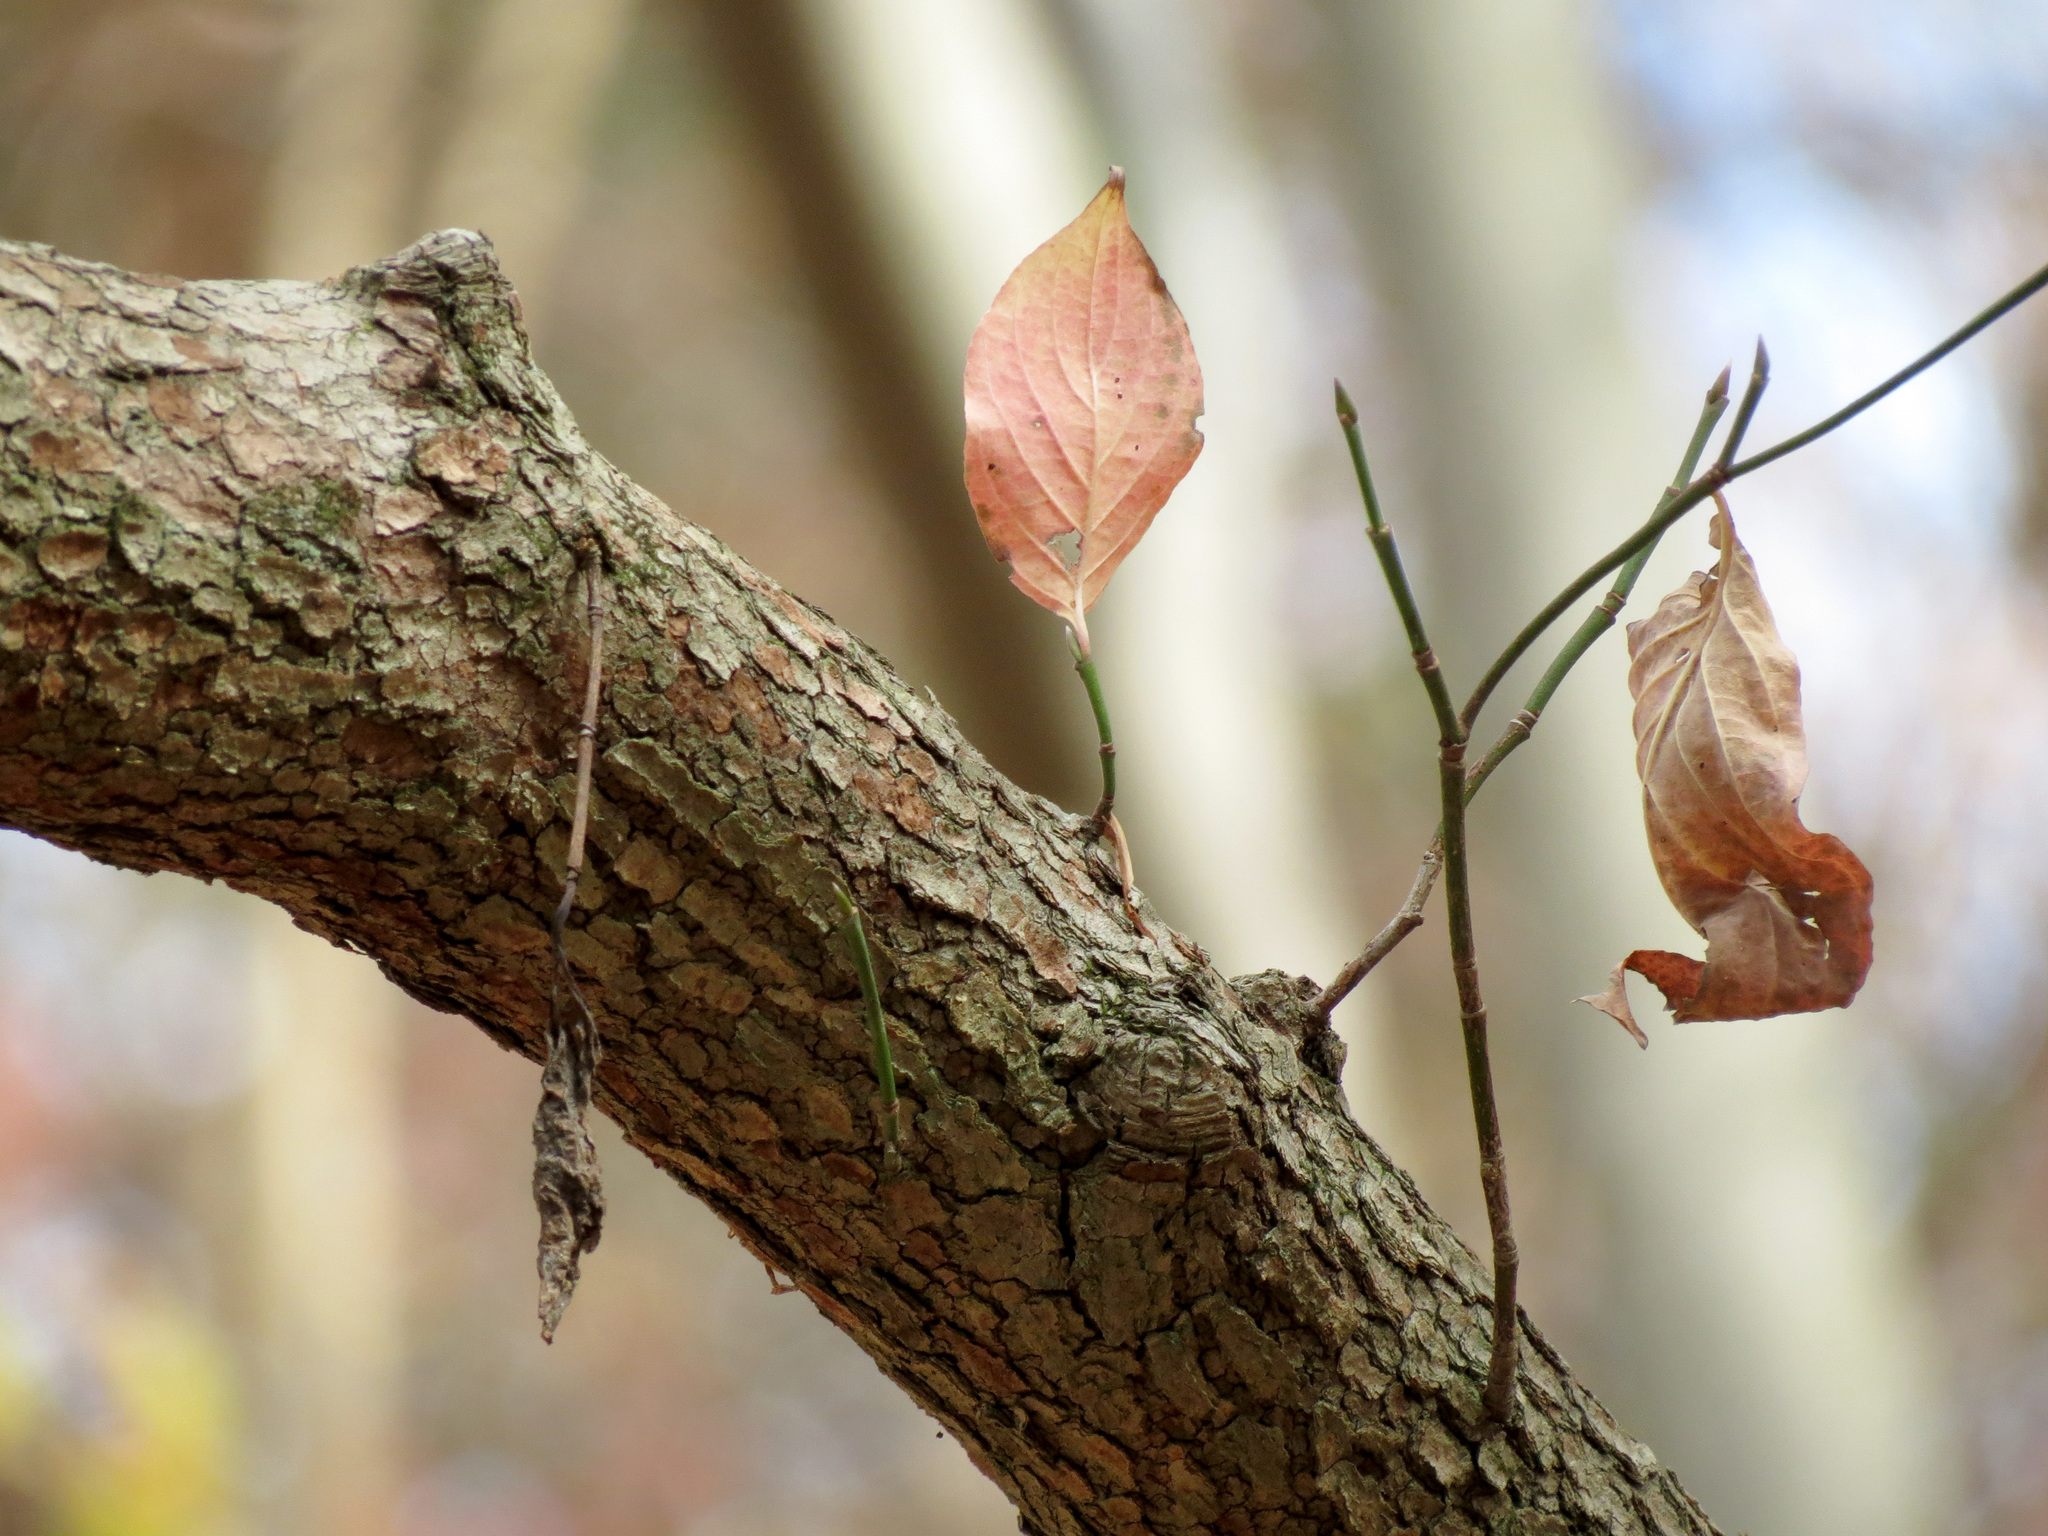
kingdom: Plantae
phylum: Tracheophyta
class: Magnoliopsida
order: Cornales
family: Cornaceae
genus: Cornus
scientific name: Cornus florida
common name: Flowering dogwood
